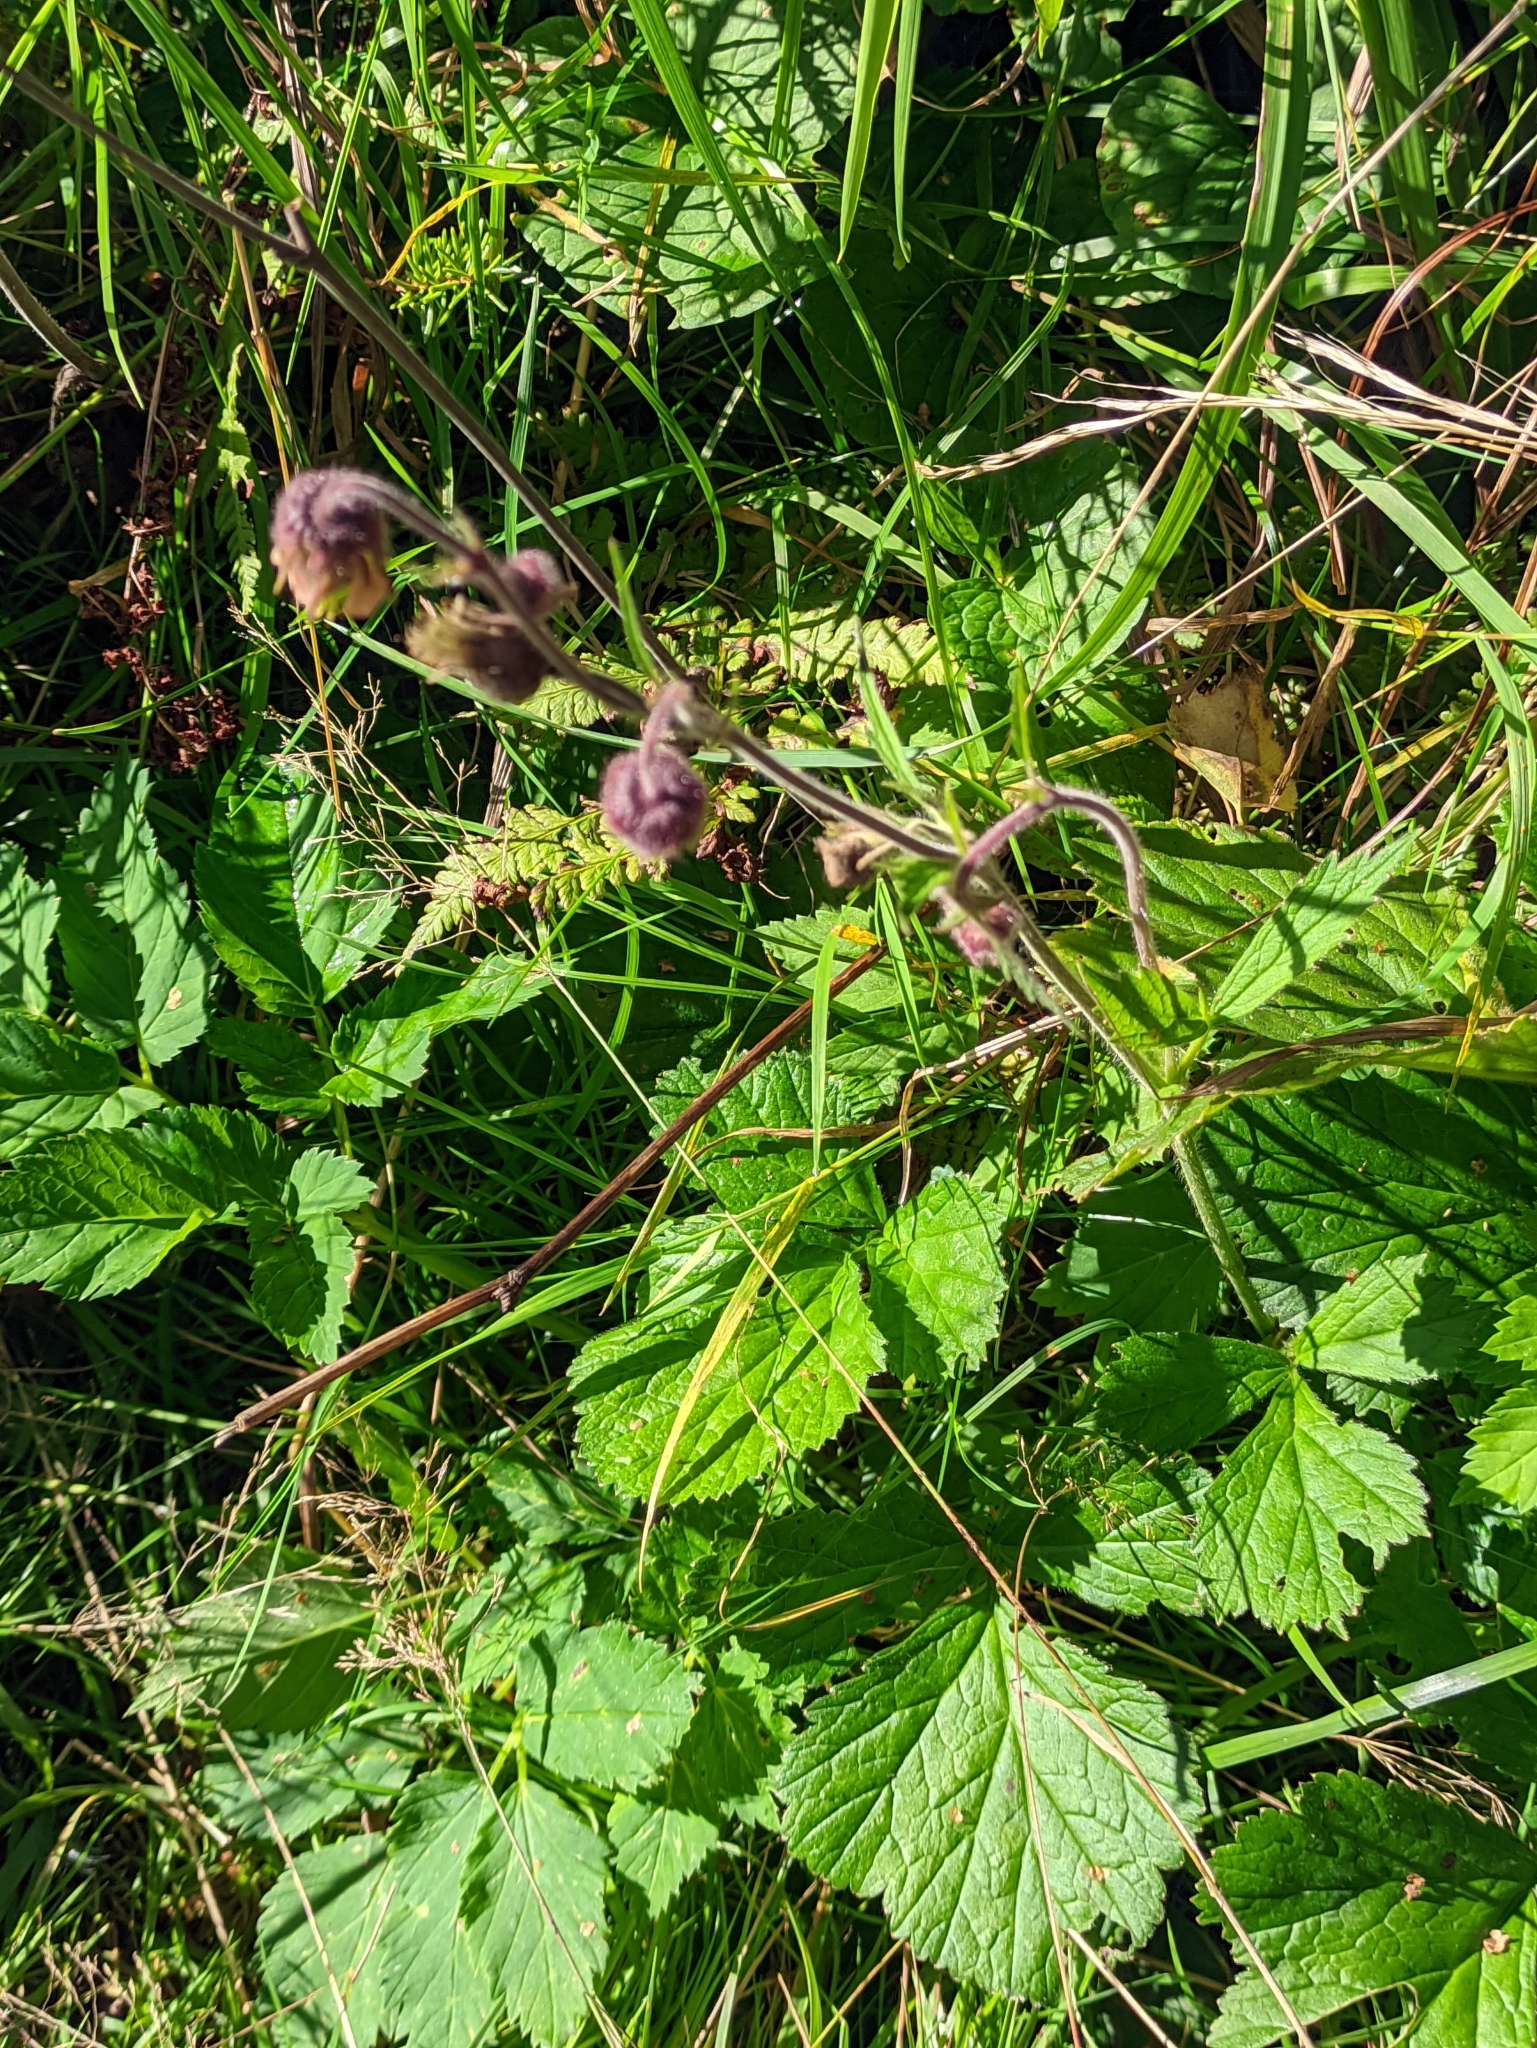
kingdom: Plantae
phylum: Tracheophyta
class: Magnoliopsida
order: Rosales
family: Rosaceae
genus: Geum
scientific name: Geum rivale
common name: Water avens
